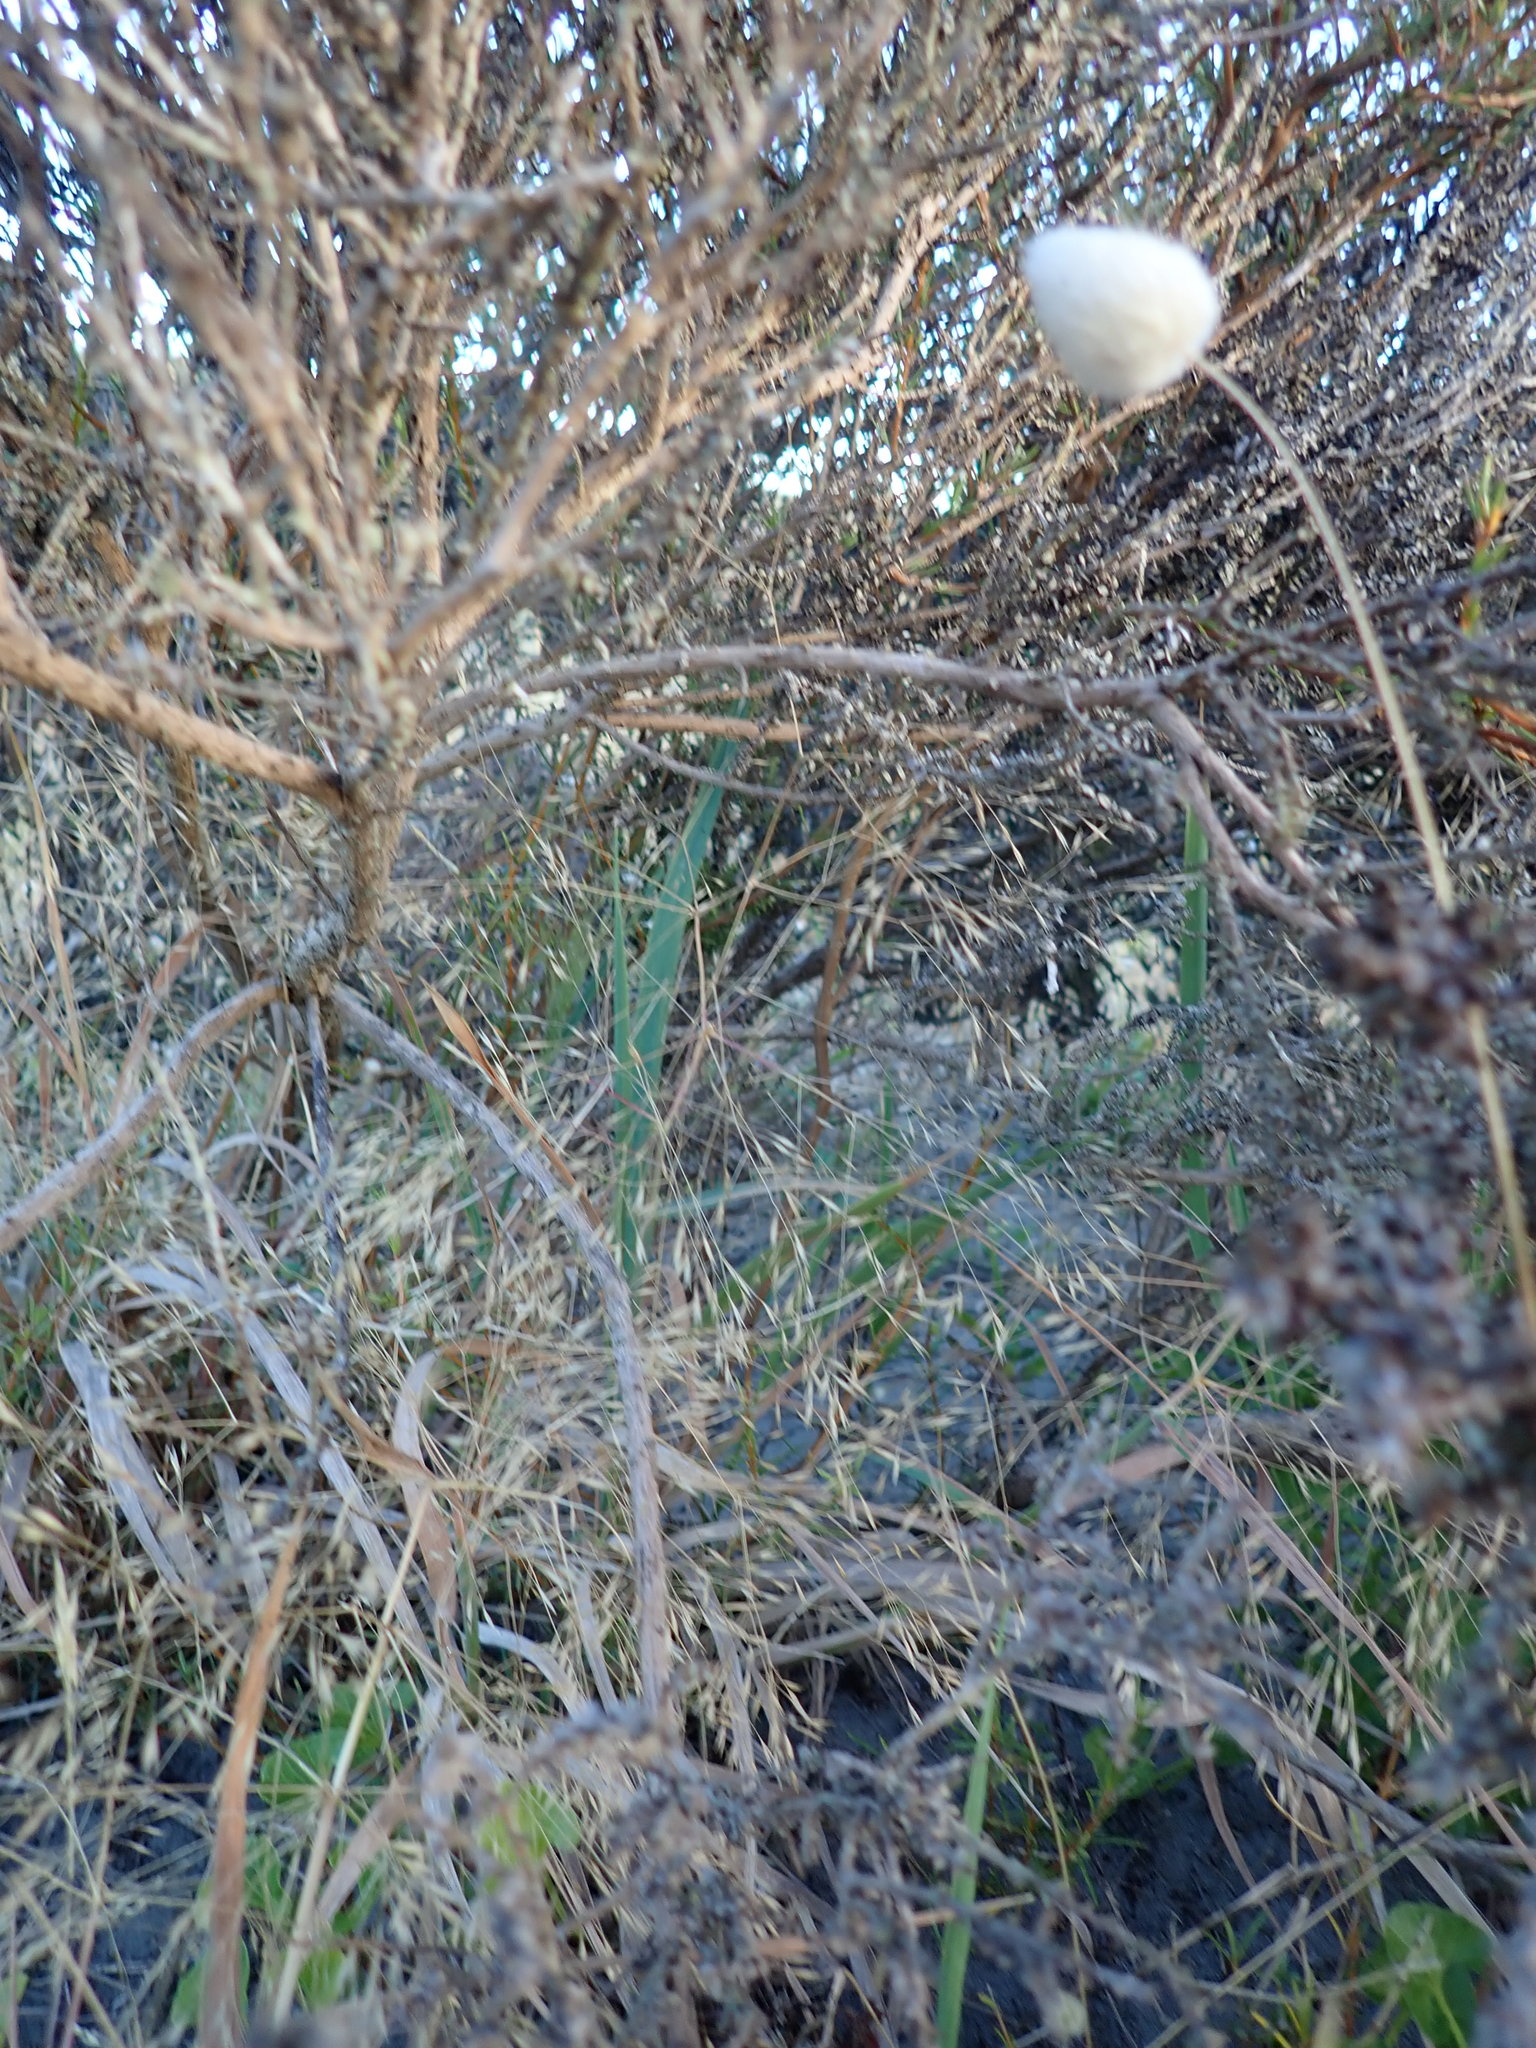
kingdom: Plantae
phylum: Tracheophyta
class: Magnoliopsida
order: Gentianales
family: Rubiaceae
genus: Coprosma
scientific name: Coprosma acerosa
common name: Sand coprosma
